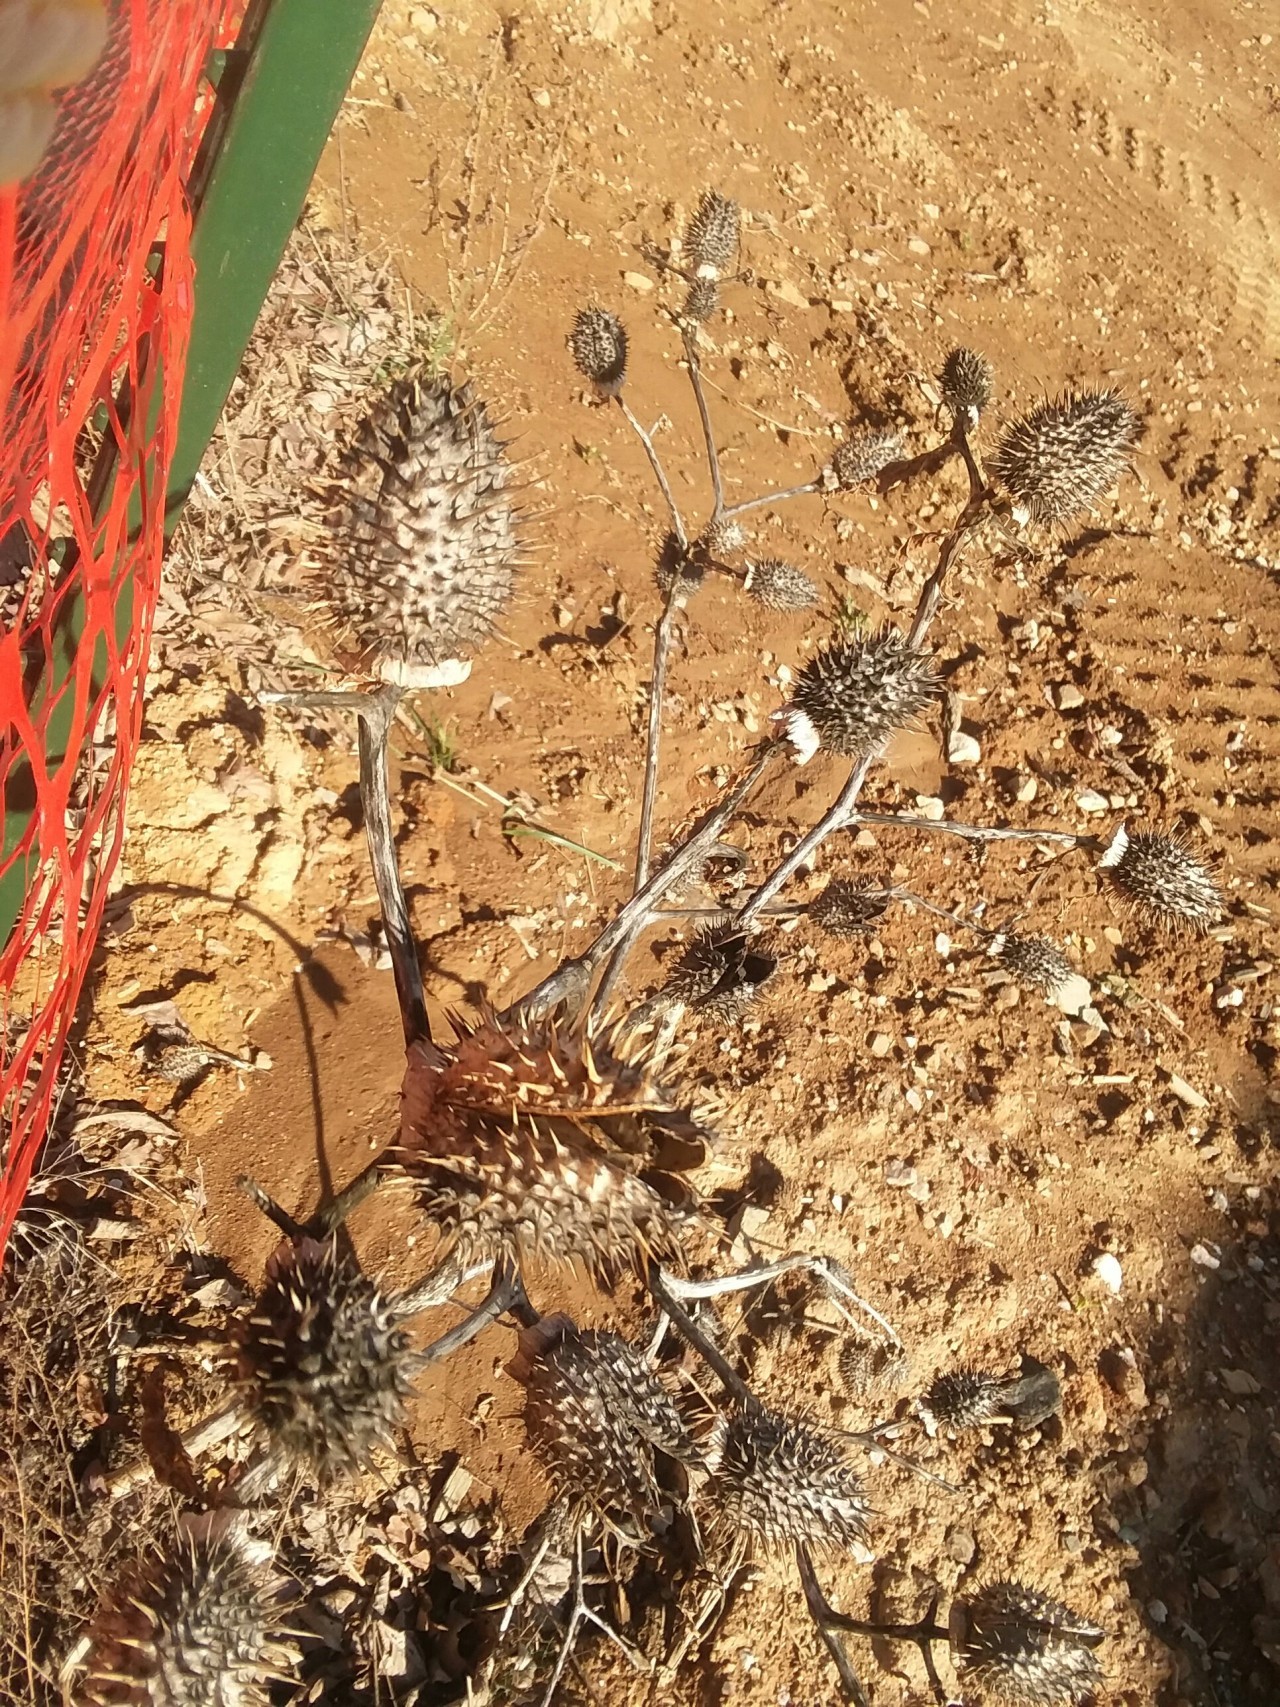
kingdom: Plantae
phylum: Tracheophyta
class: Magnoliopsida
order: Solanales
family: Solanaceae
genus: Datura
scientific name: Datura stramonium
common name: Thorn-apple
